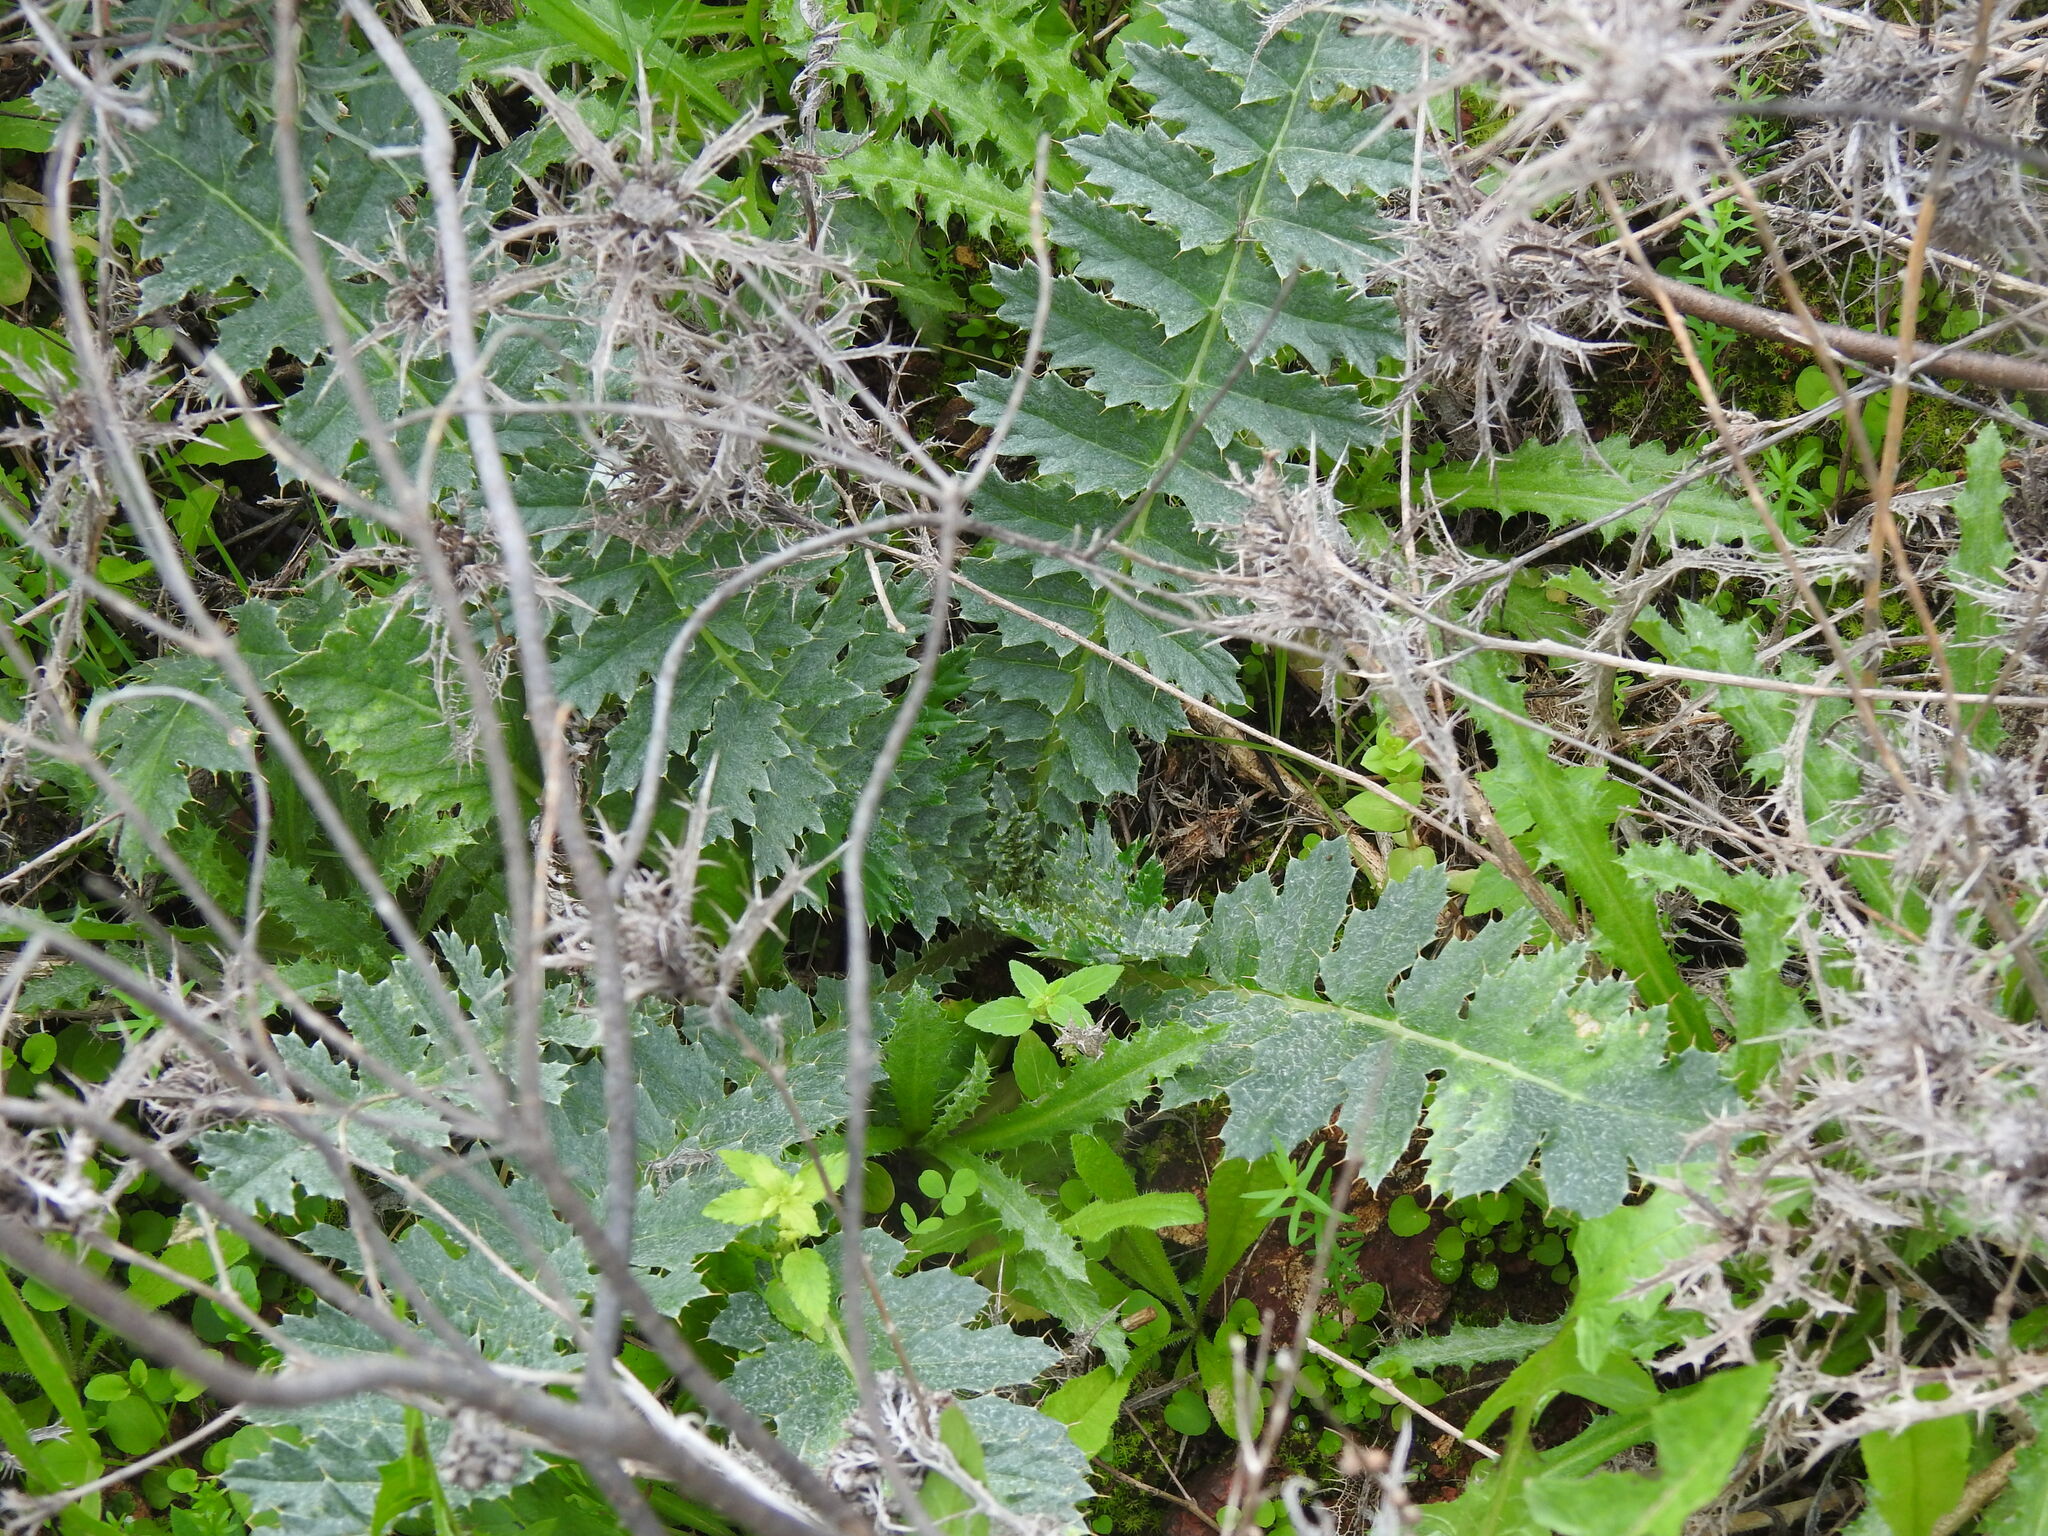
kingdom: Plantae
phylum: Tracheophyta
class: Magnoliopsida
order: Asterales
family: Asteraceae
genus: Cynara
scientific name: Cynara algarbiensis
